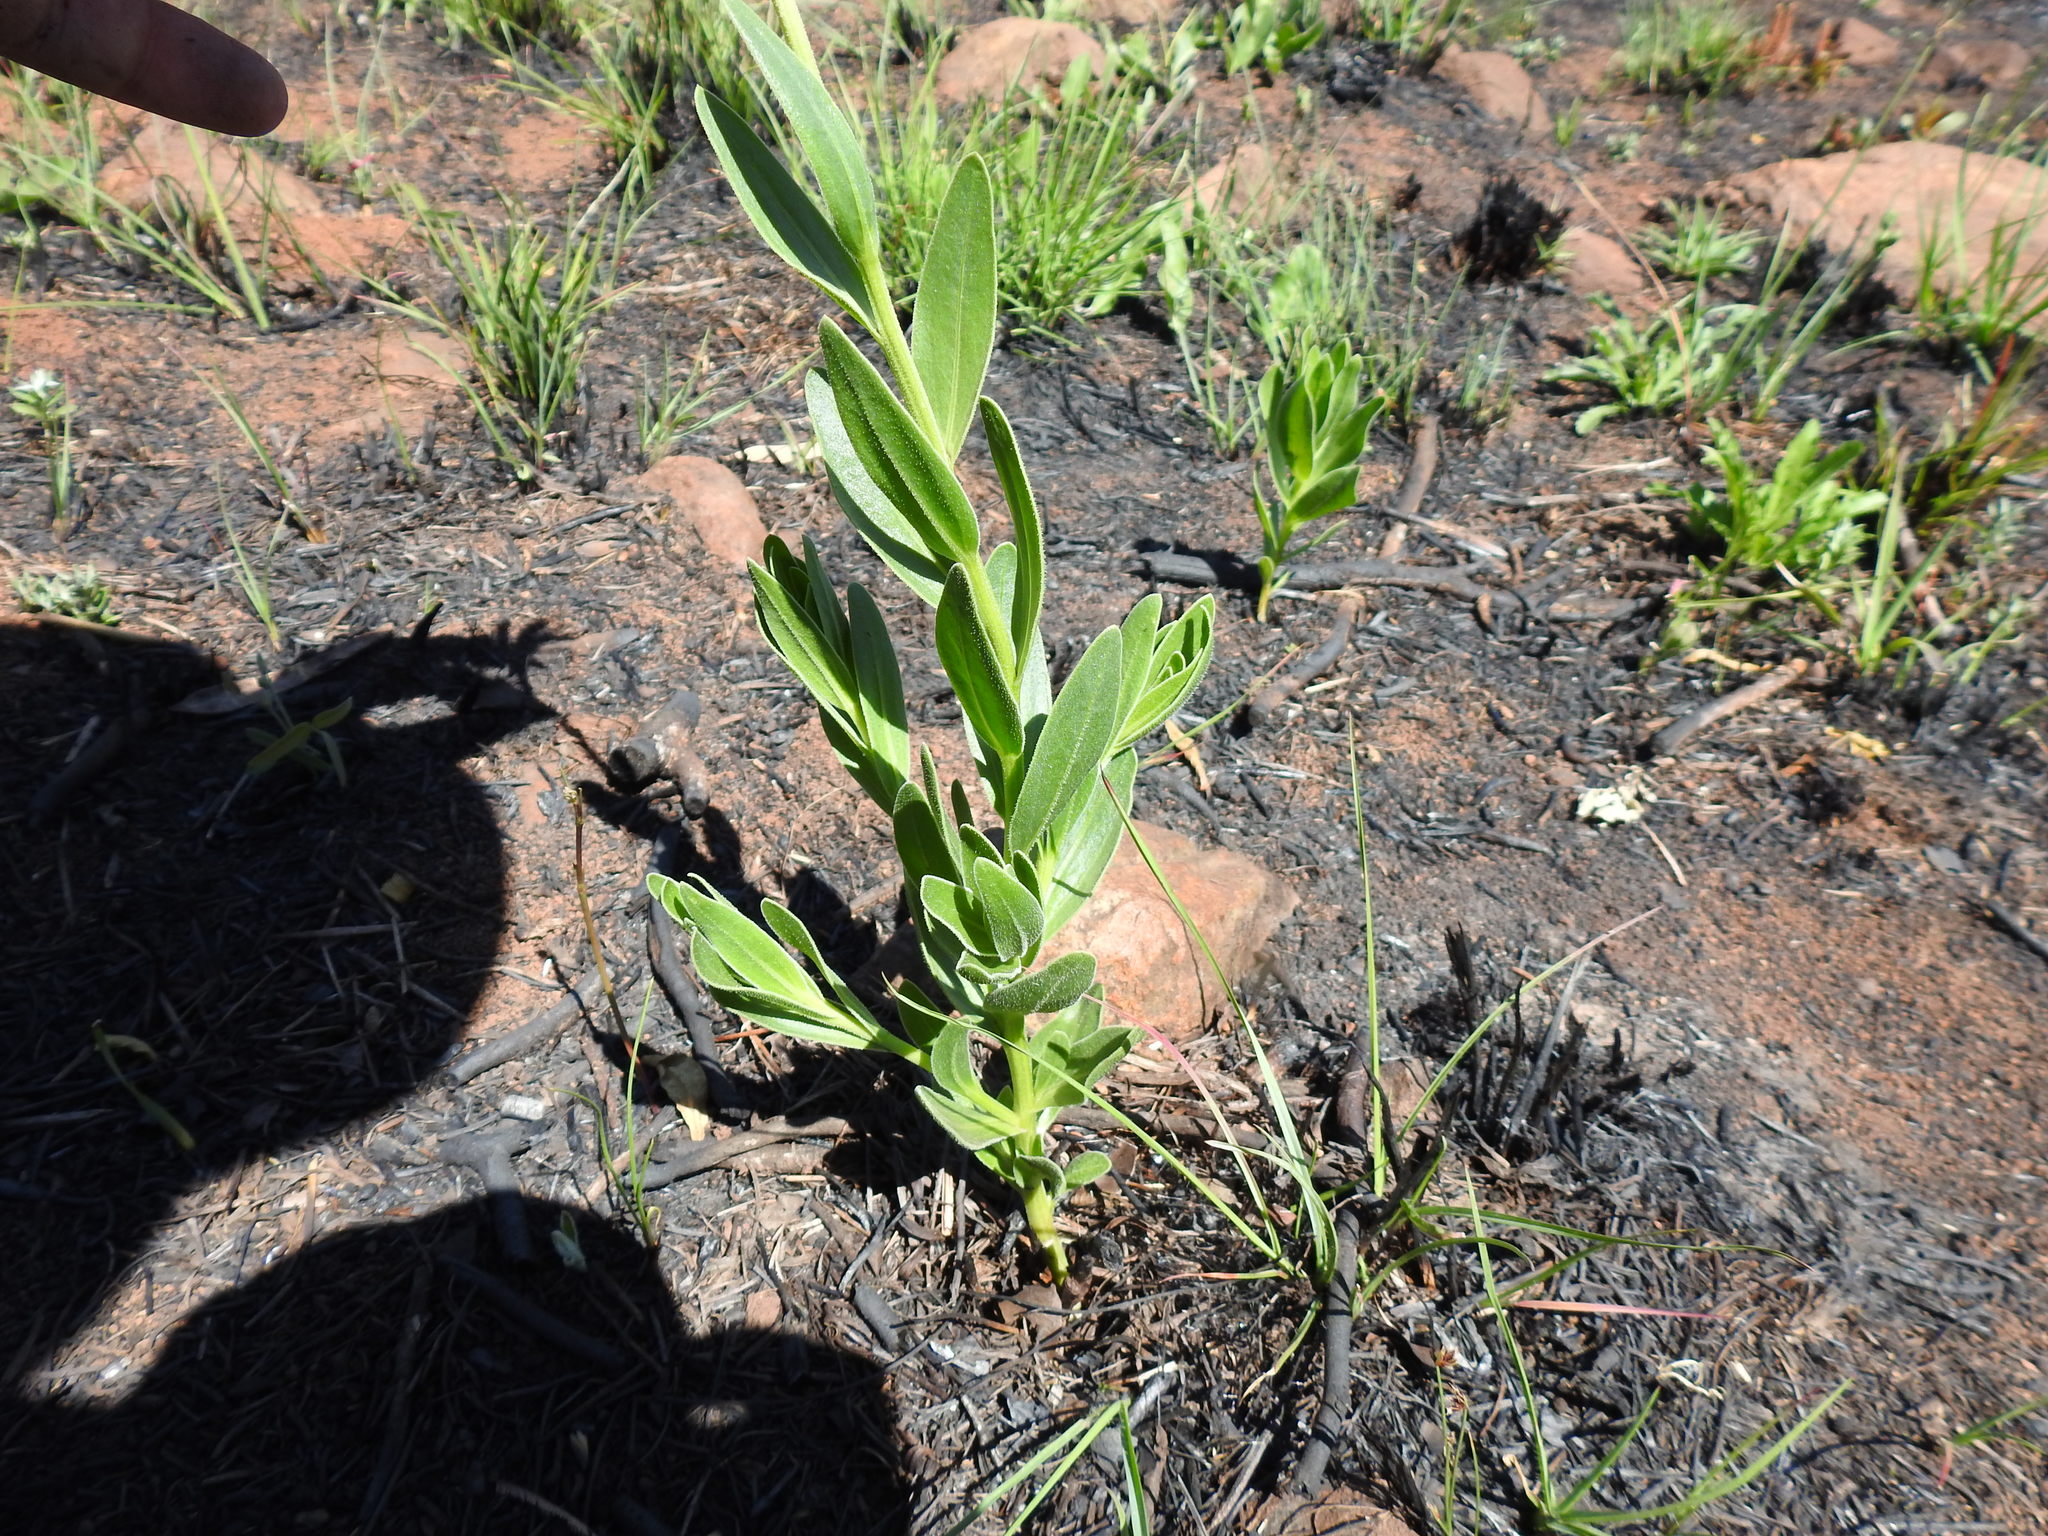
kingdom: Plantae
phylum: Tracheophyta
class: Magnoliopsida
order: Asterales
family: Asteraceae
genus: Dimorphotheca
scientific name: Dimorphotheca spectabilis
